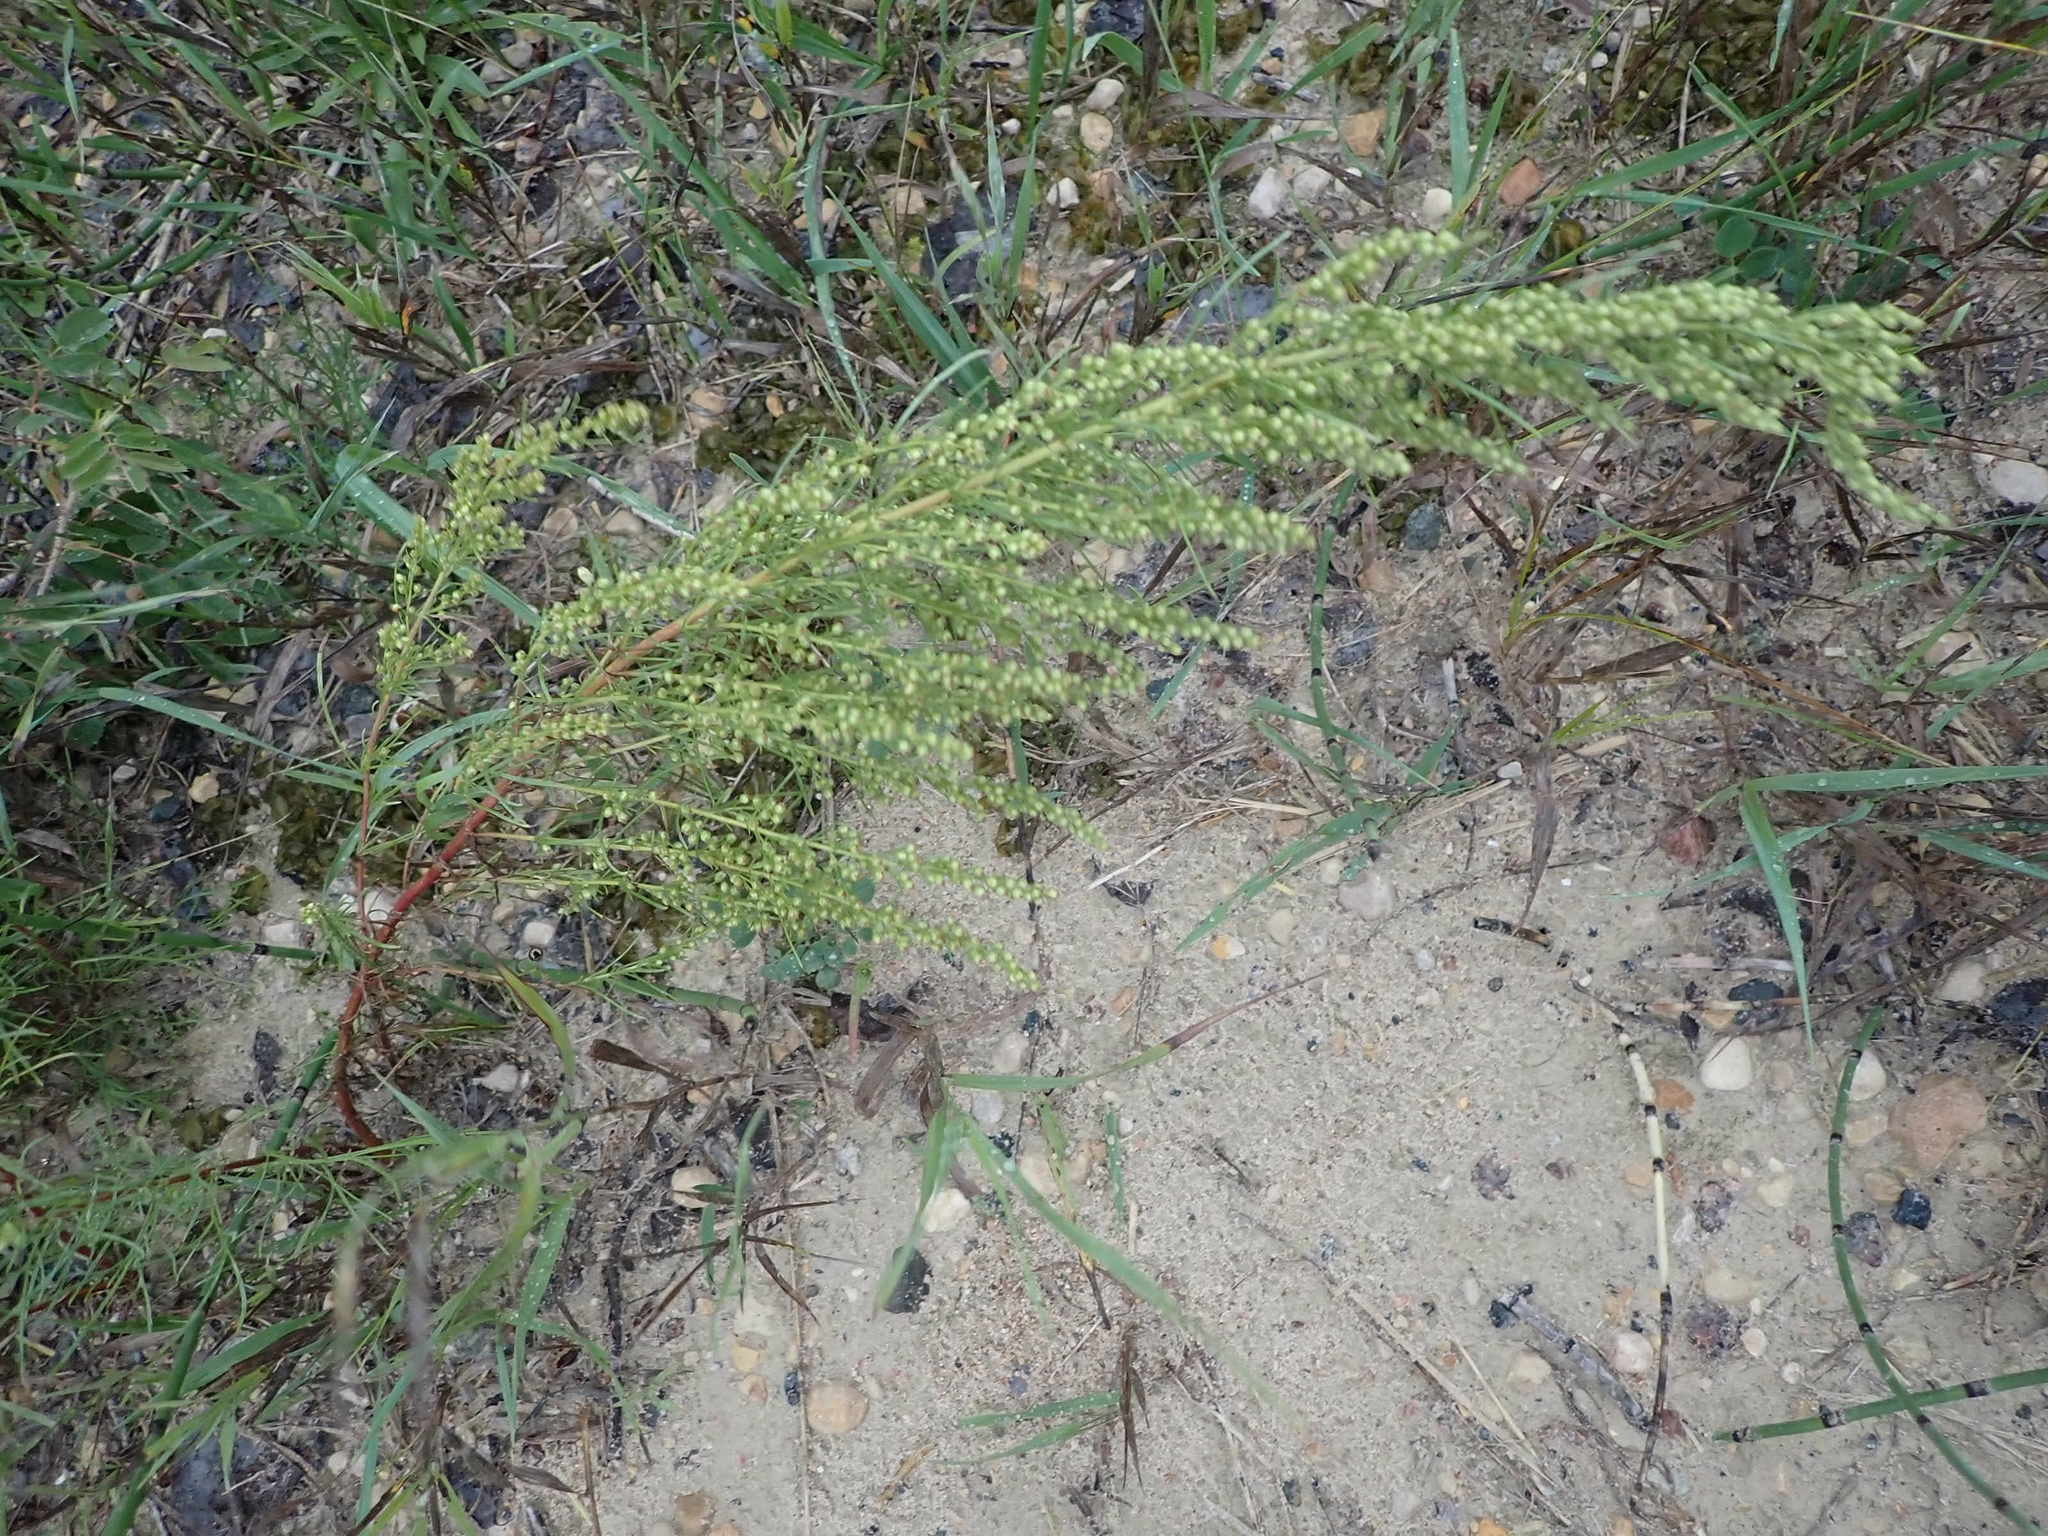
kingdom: Plantae
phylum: Tracheophyta
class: Magnoliopsida
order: Asterales
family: Asteraceae
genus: Artemisia
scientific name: Artemisia campestris
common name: Field wormwood
